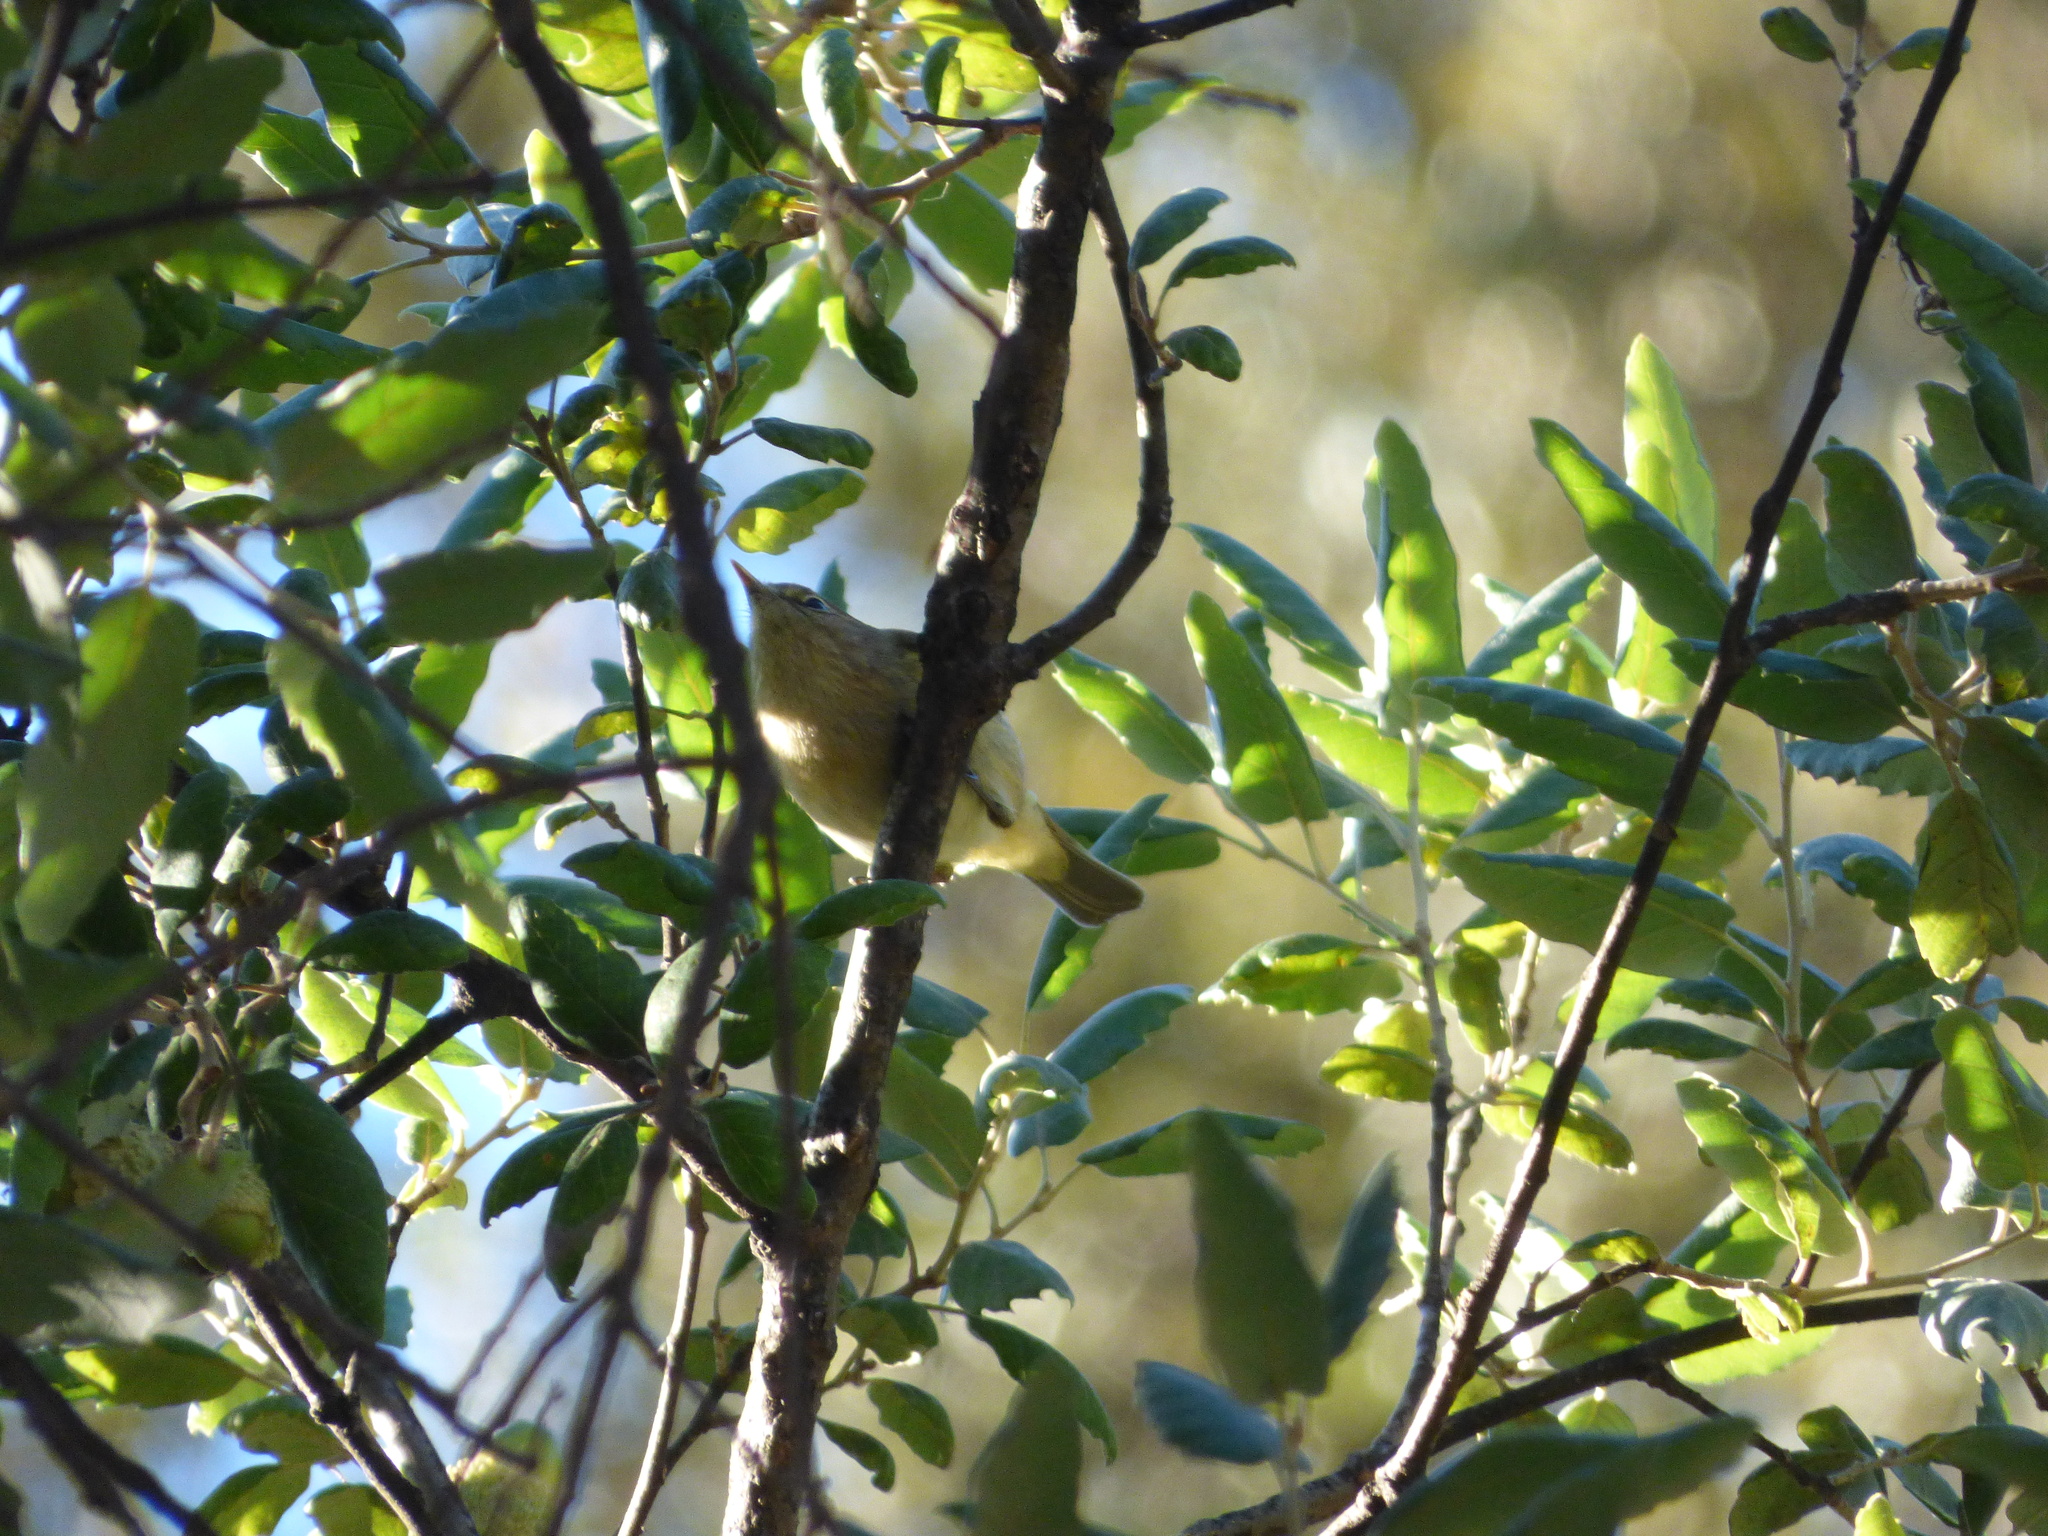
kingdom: Animalia
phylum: Chordata
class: Aves
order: Passeriformes
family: Phylloscopidae
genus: Phylloscopus
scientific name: Phylloscopus collybita
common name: Common chiffchaff
